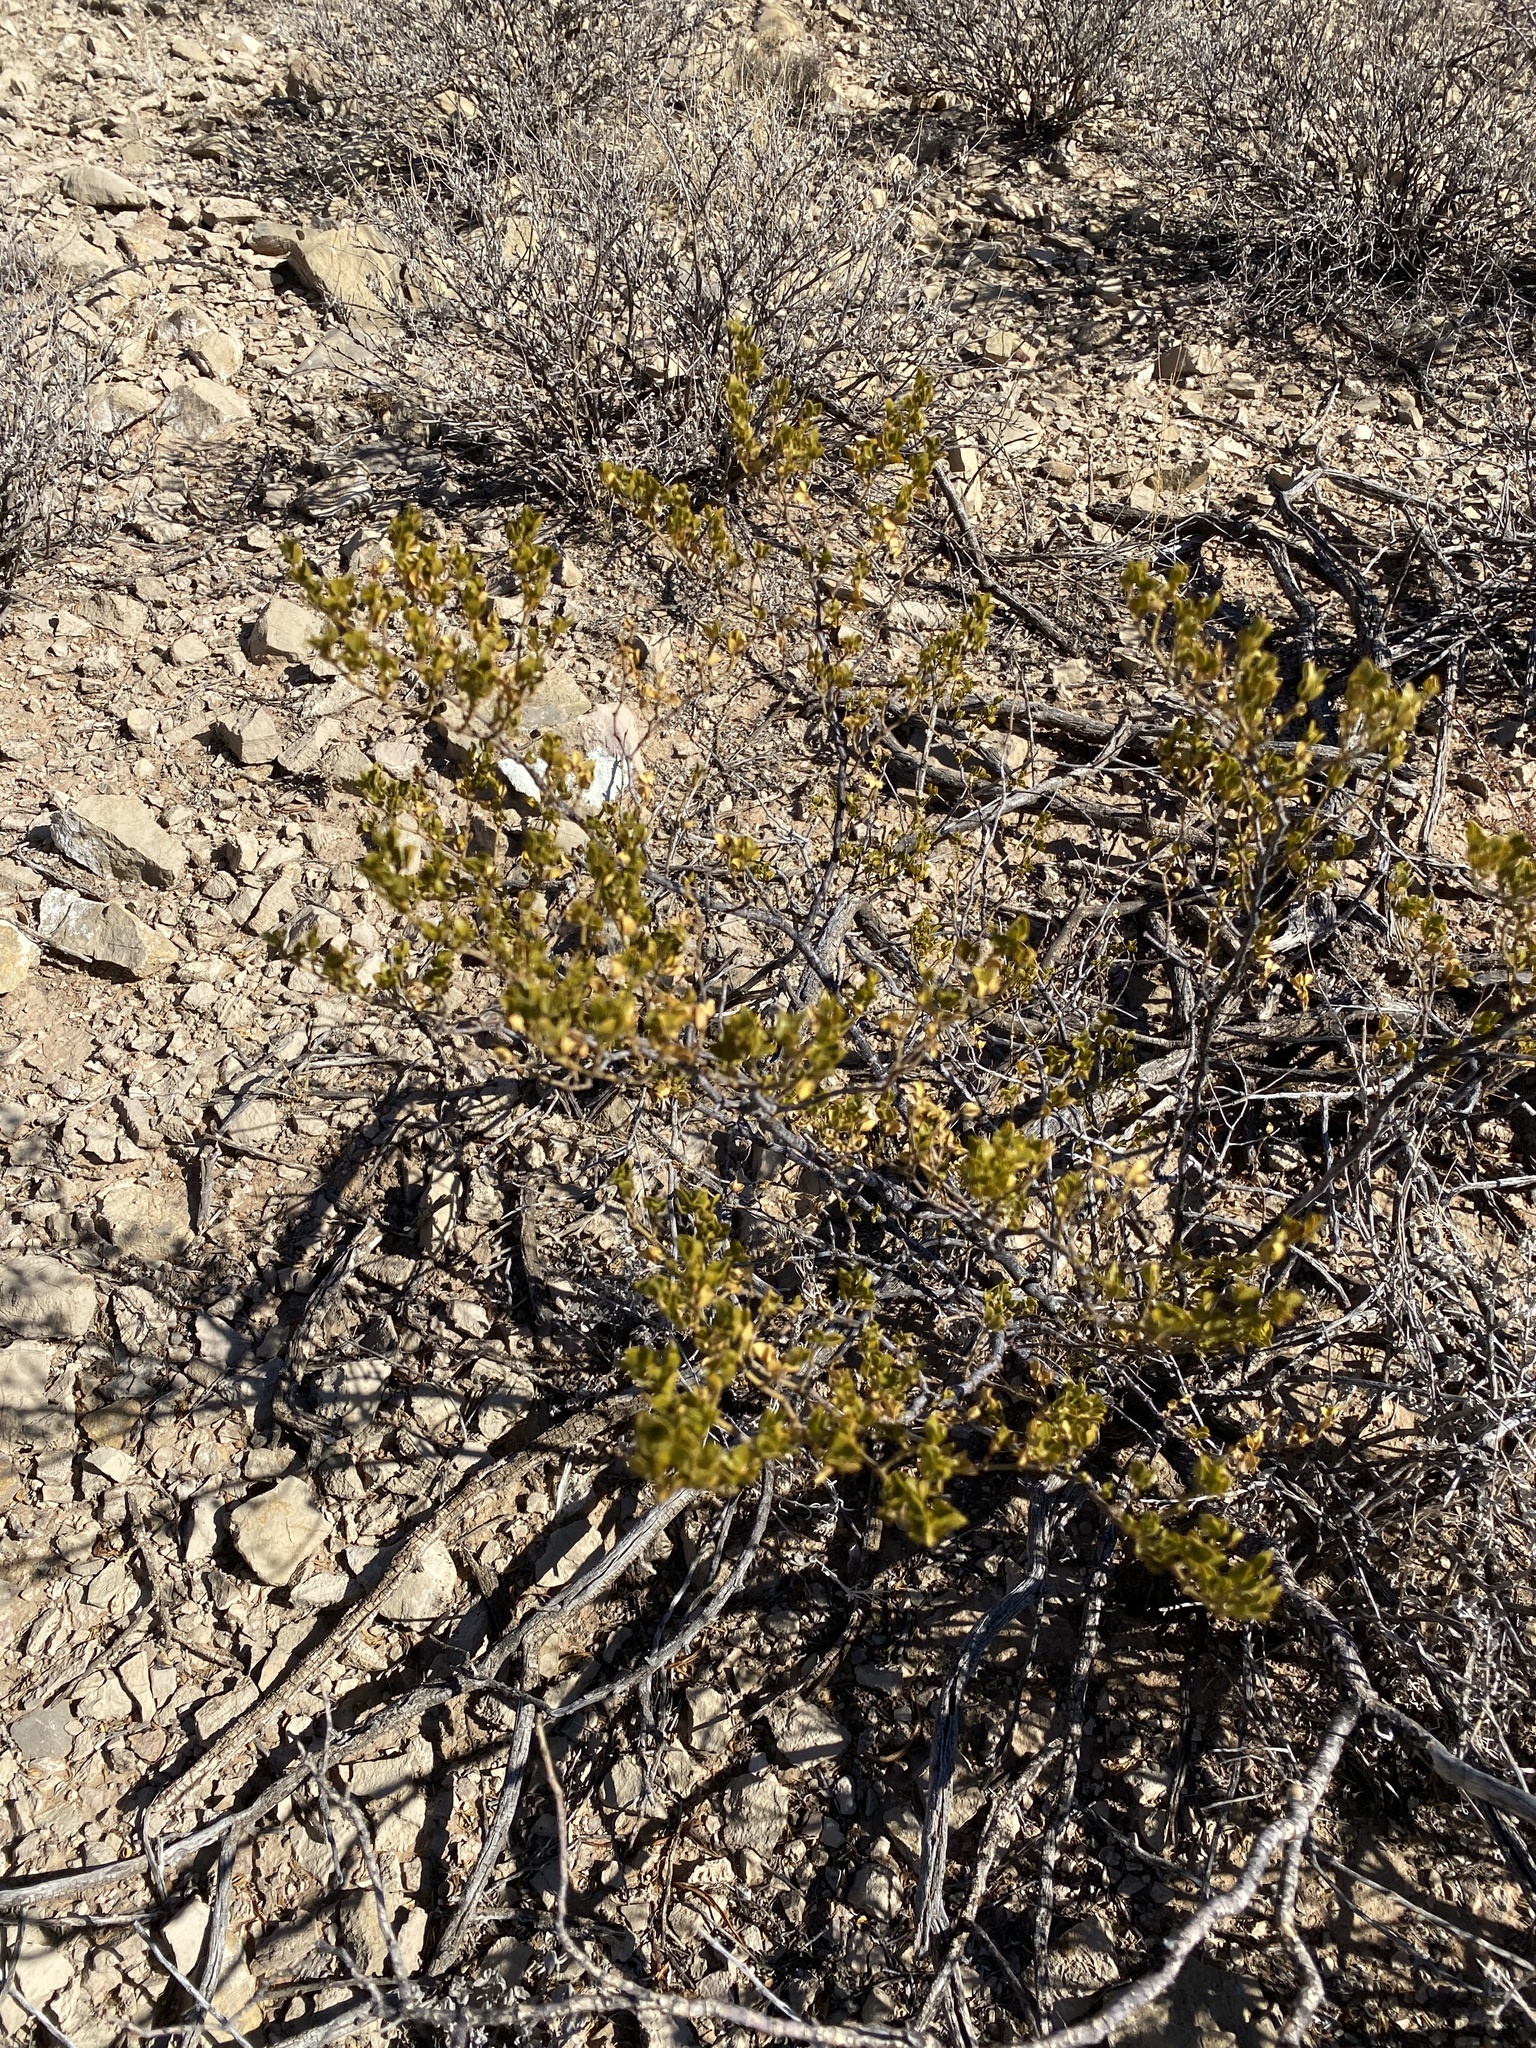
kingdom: Plantae
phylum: Tracheophyta
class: Magnoliopsida
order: Zygophyllales
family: Zygophyllaceae
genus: Larrea
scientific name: Larrea tridentata
